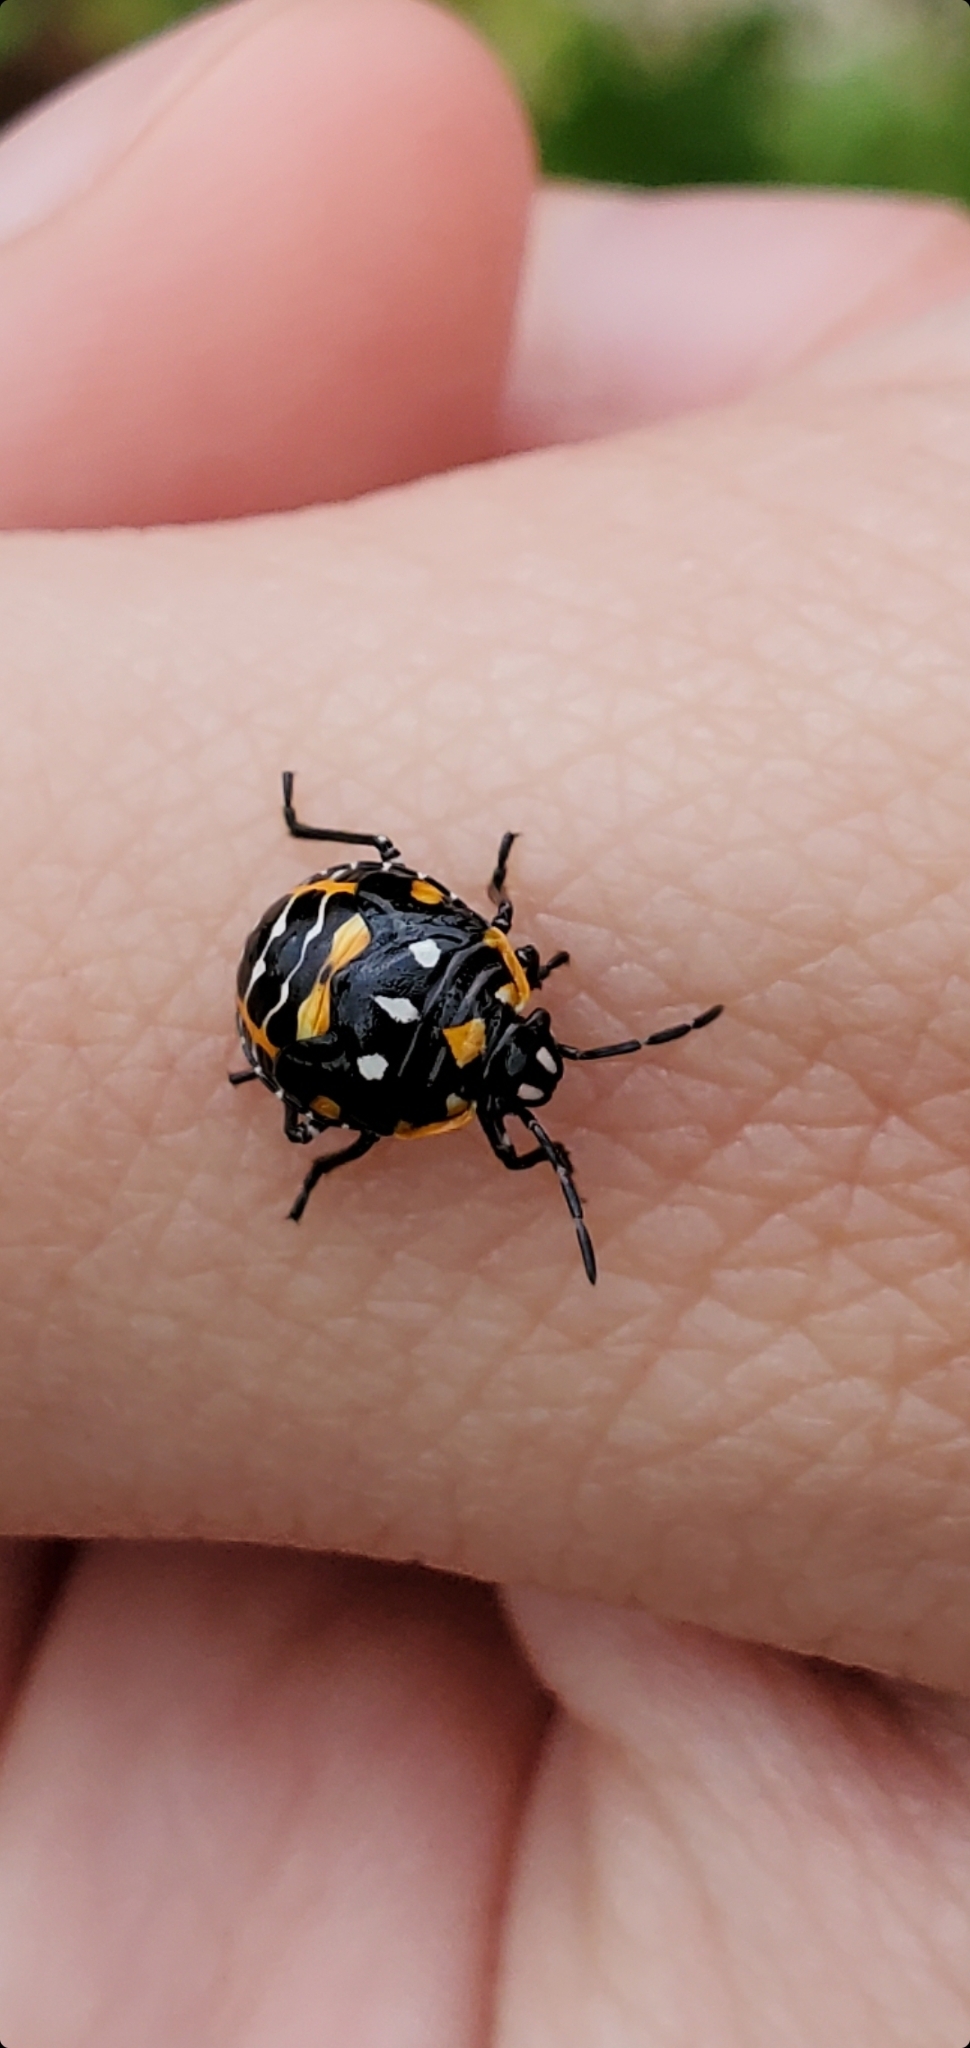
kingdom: Animalia
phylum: Arthropoda
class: Insecta
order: Hemiptera
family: Pentatomidae
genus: Murgantia
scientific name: Murgantia histrionica
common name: Harlequin bug
